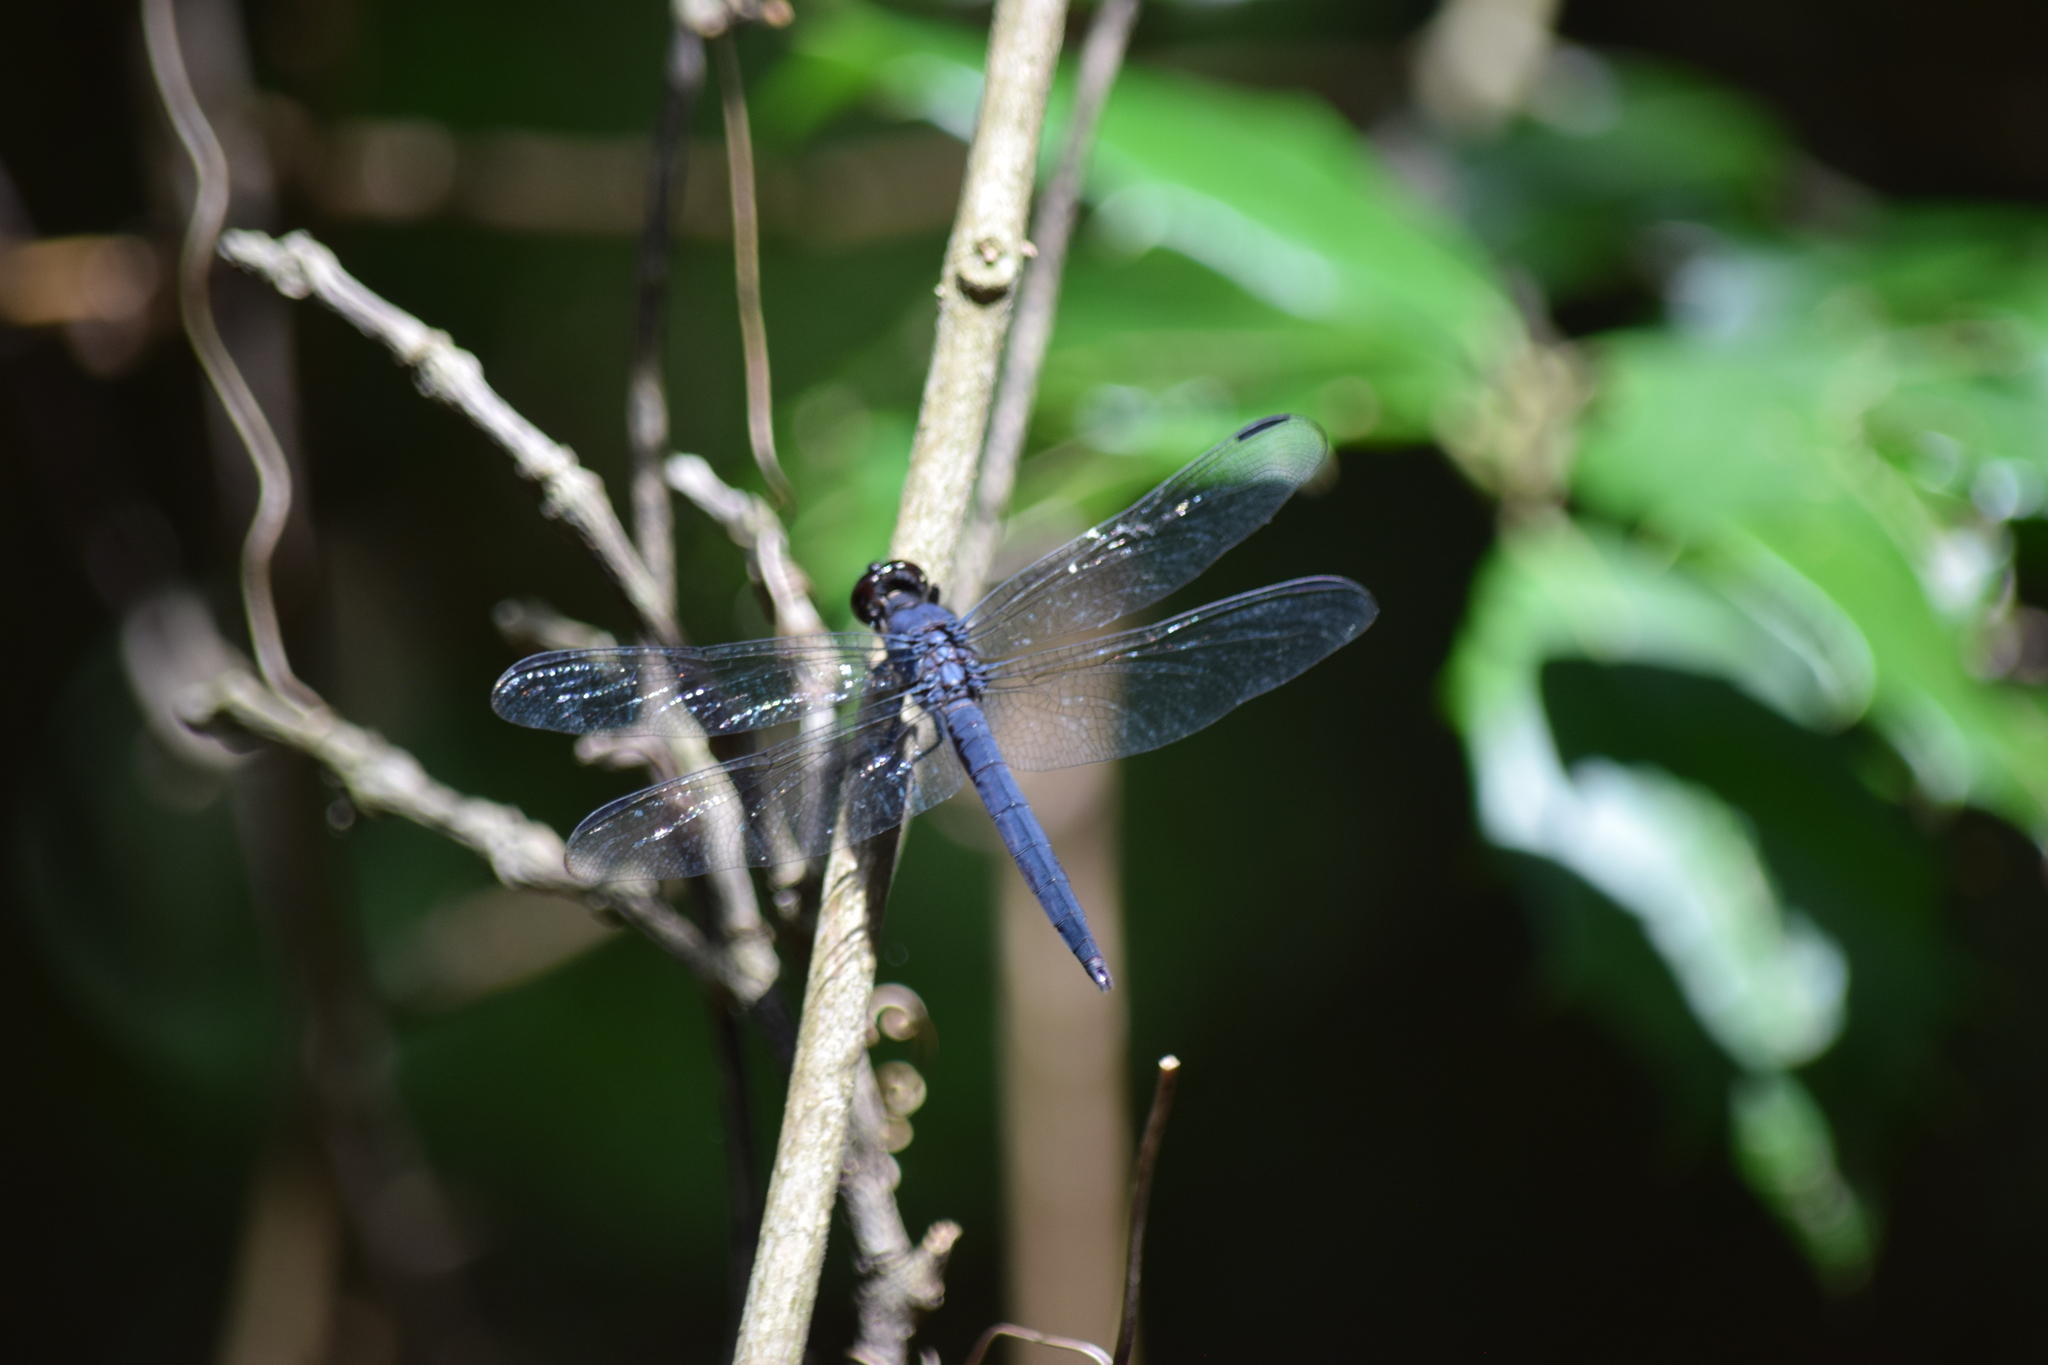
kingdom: Animalia
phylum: Arthropoda
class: Insecta
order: Odonata
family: Libellulidae
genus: Libellula
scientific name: Libellula incesta
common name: Slaty skimmer
